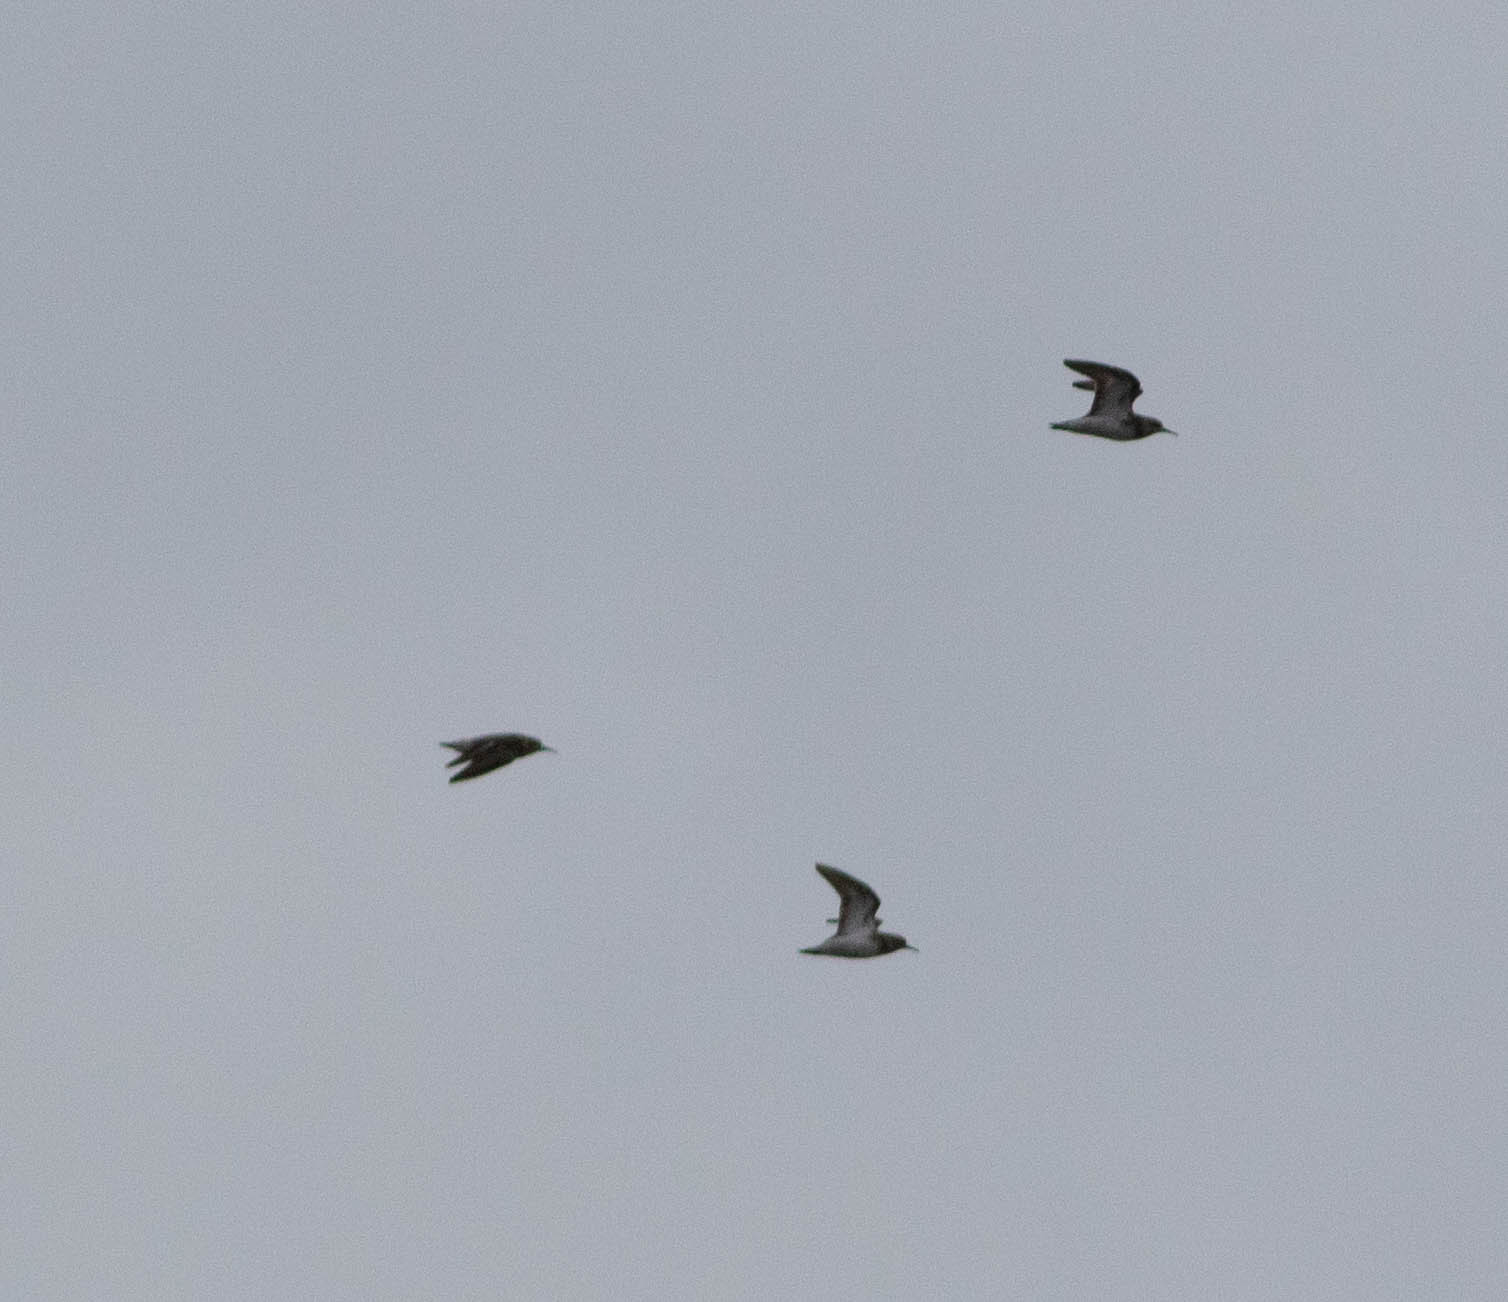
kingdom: Animalia
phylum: Chordata
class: Aves
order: Charadriiformes
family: Scolopacidae
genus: Calidris
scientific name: Calidris minutilla
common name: Least sandpiper
